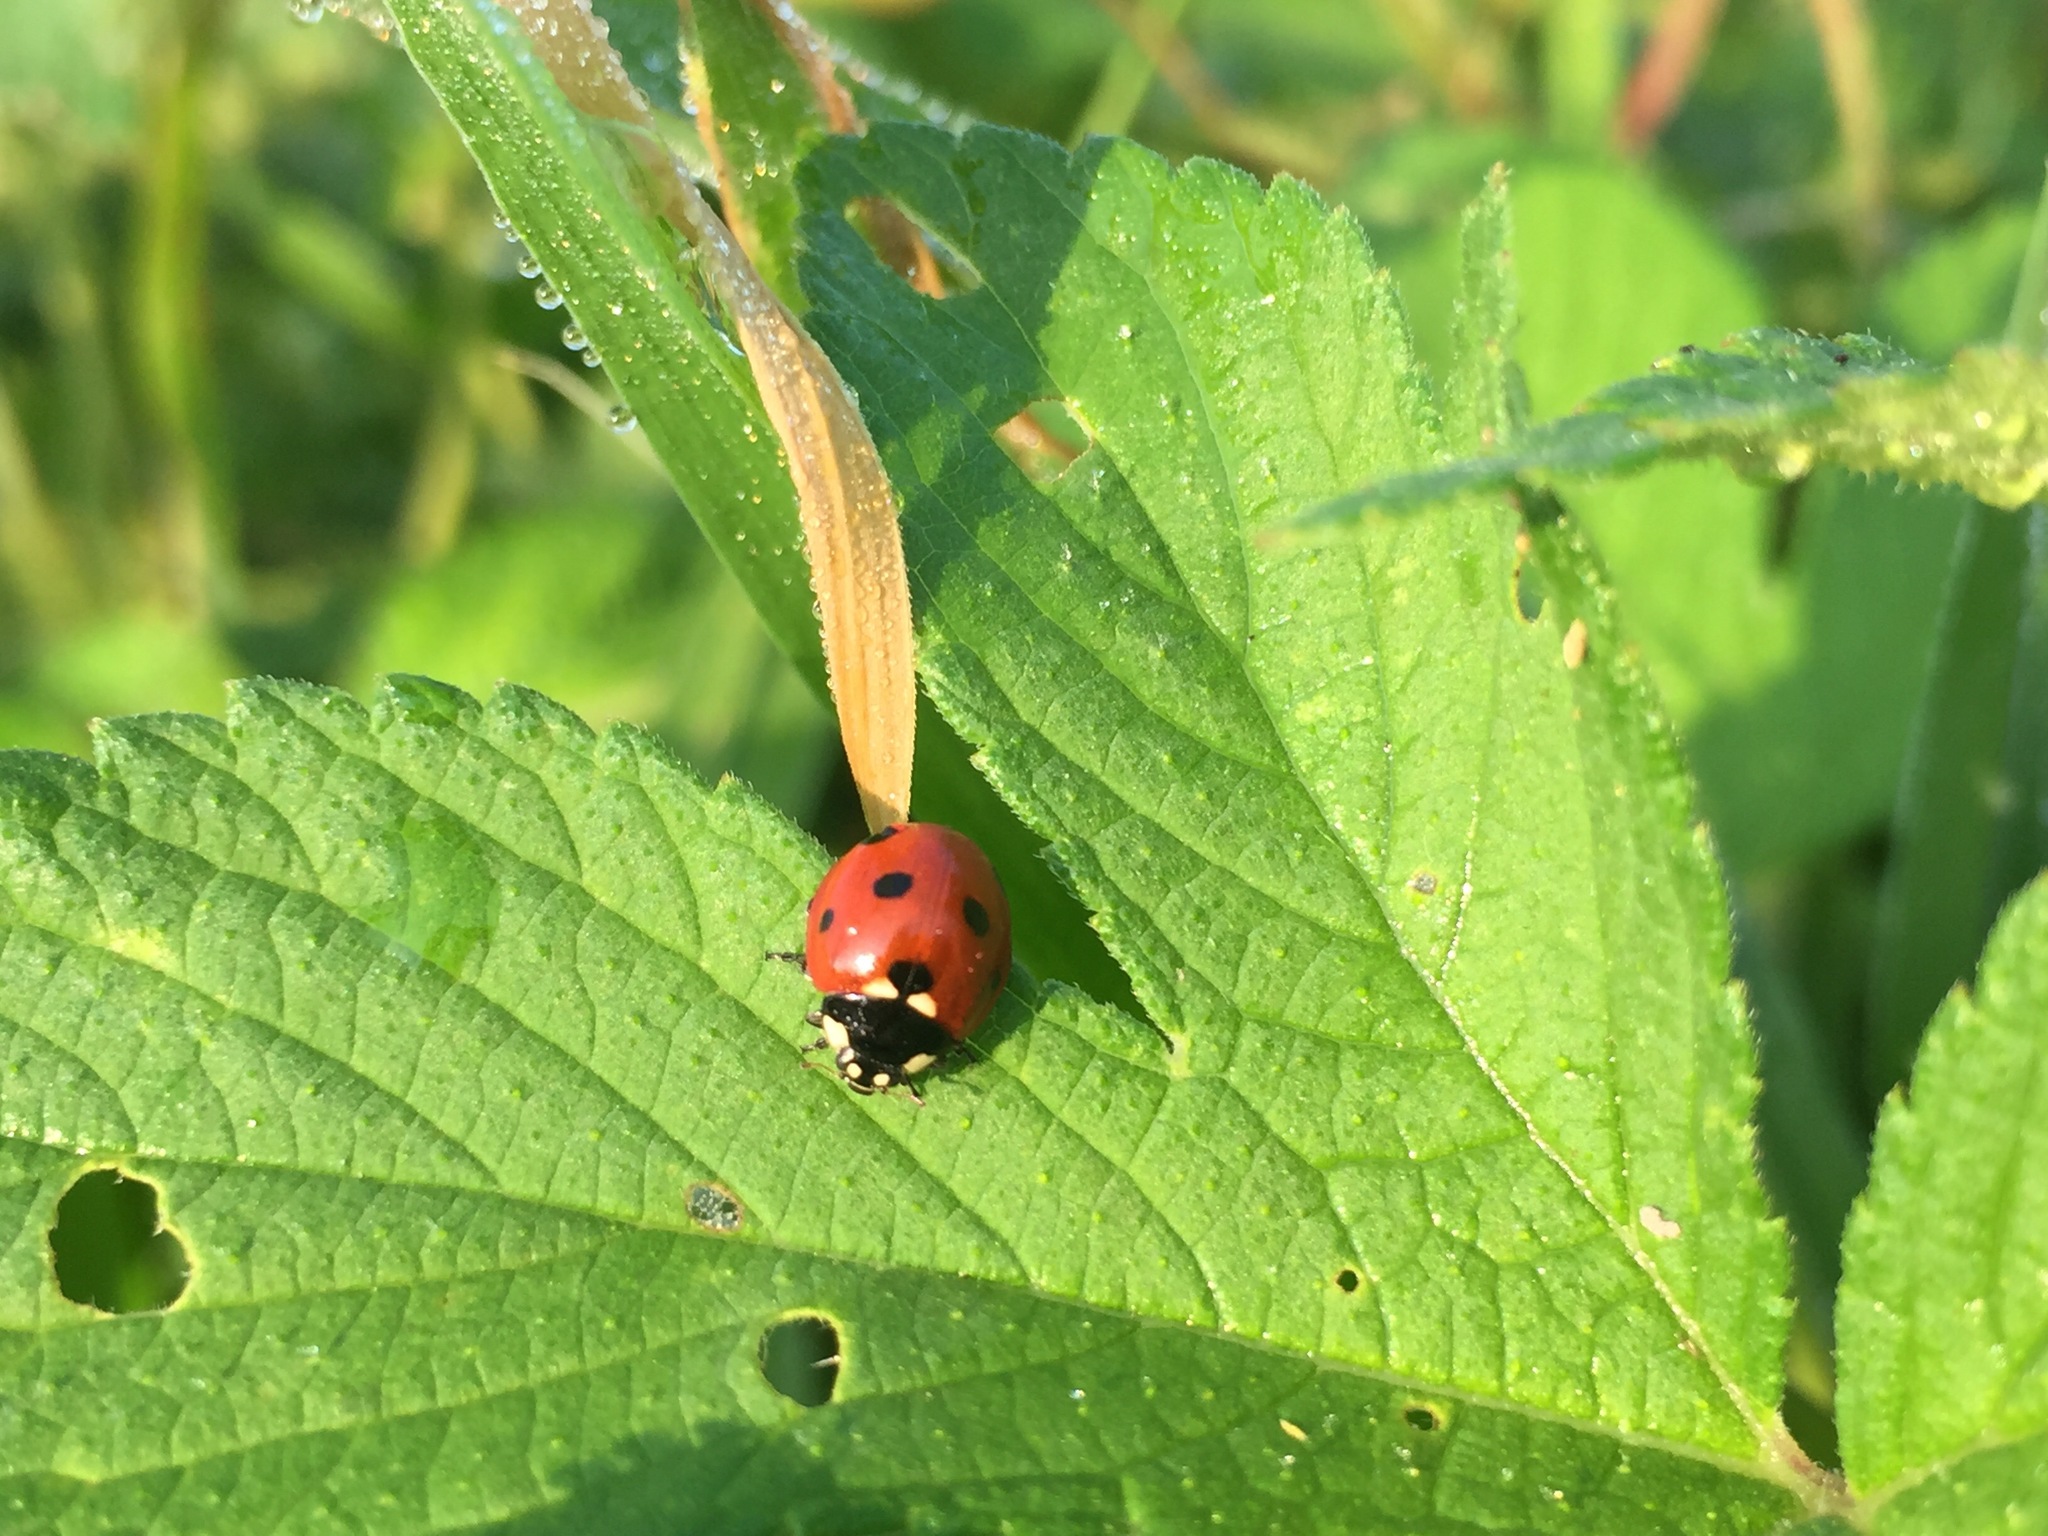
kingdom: Animalia
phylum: Arthropoda
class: Insecta
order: Coleoptera
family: Coccinellidae
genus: Coccinella
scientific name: Coccinella septempunctata
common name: Sevenspotted lady beetle
